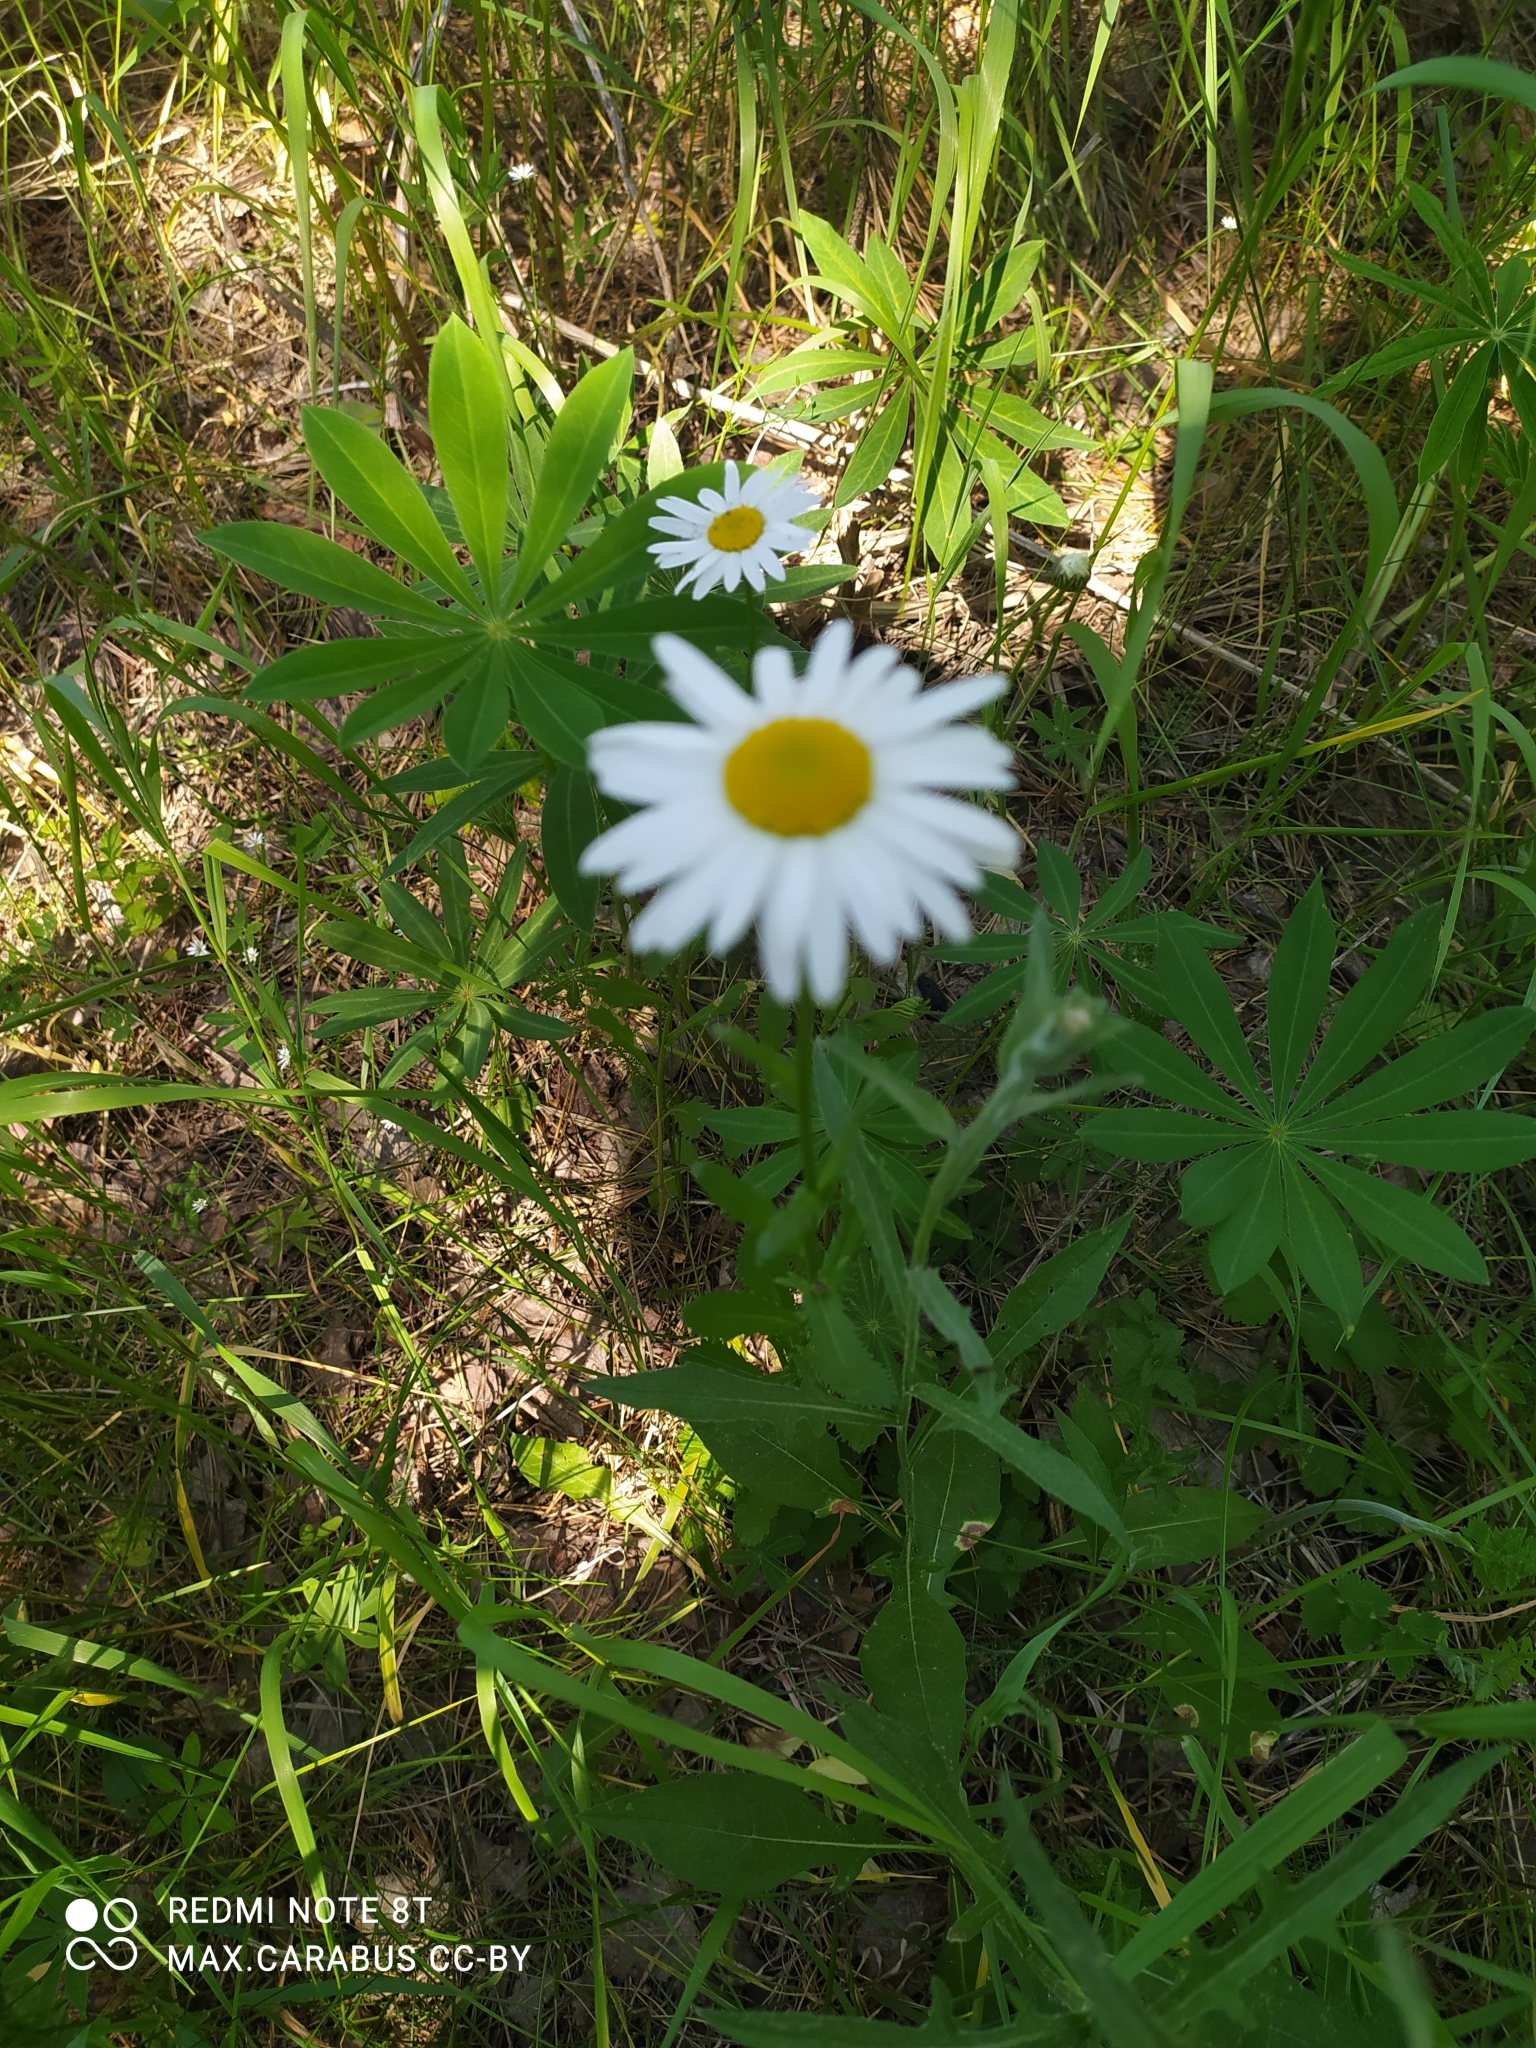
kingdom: Plantae
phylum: Tracheophyta
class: Magnoliopsida
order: Asterales
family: Asteraceae
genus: Leucanthemum
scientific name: Leucanthemum vulgare
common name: Oxeye daisy
